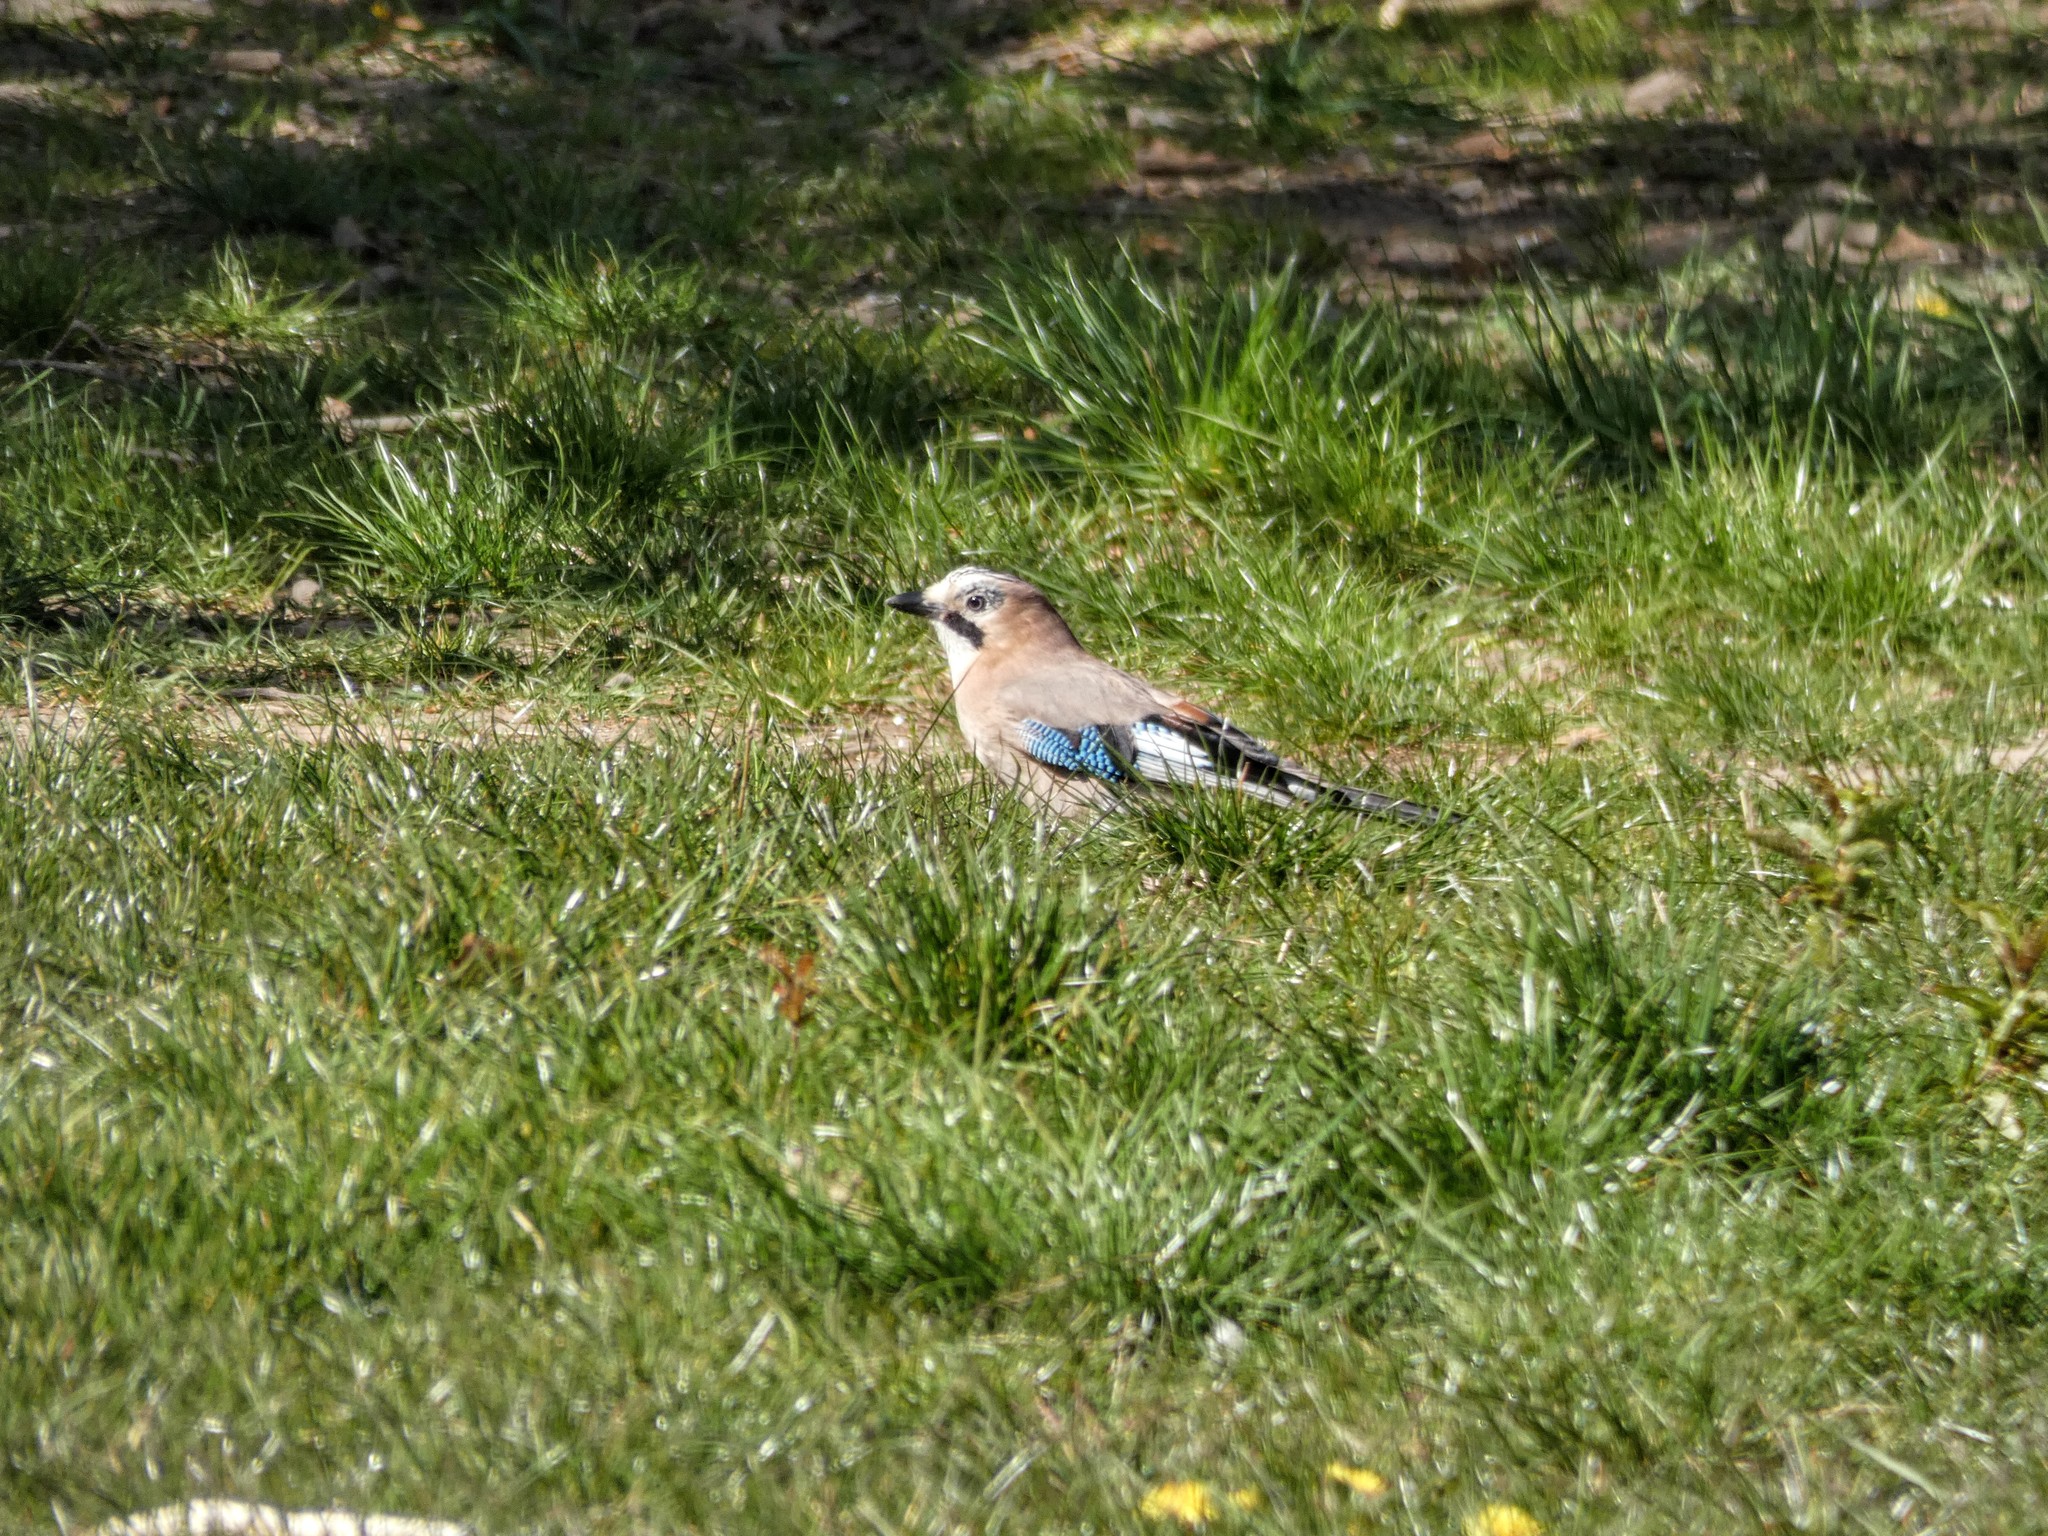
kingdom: Animalia
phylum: Chordata
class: Aves
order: Passeriformes
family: Corvidae
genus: Garrulus
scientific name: Garrulus glandarius
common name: Eurasian jay
